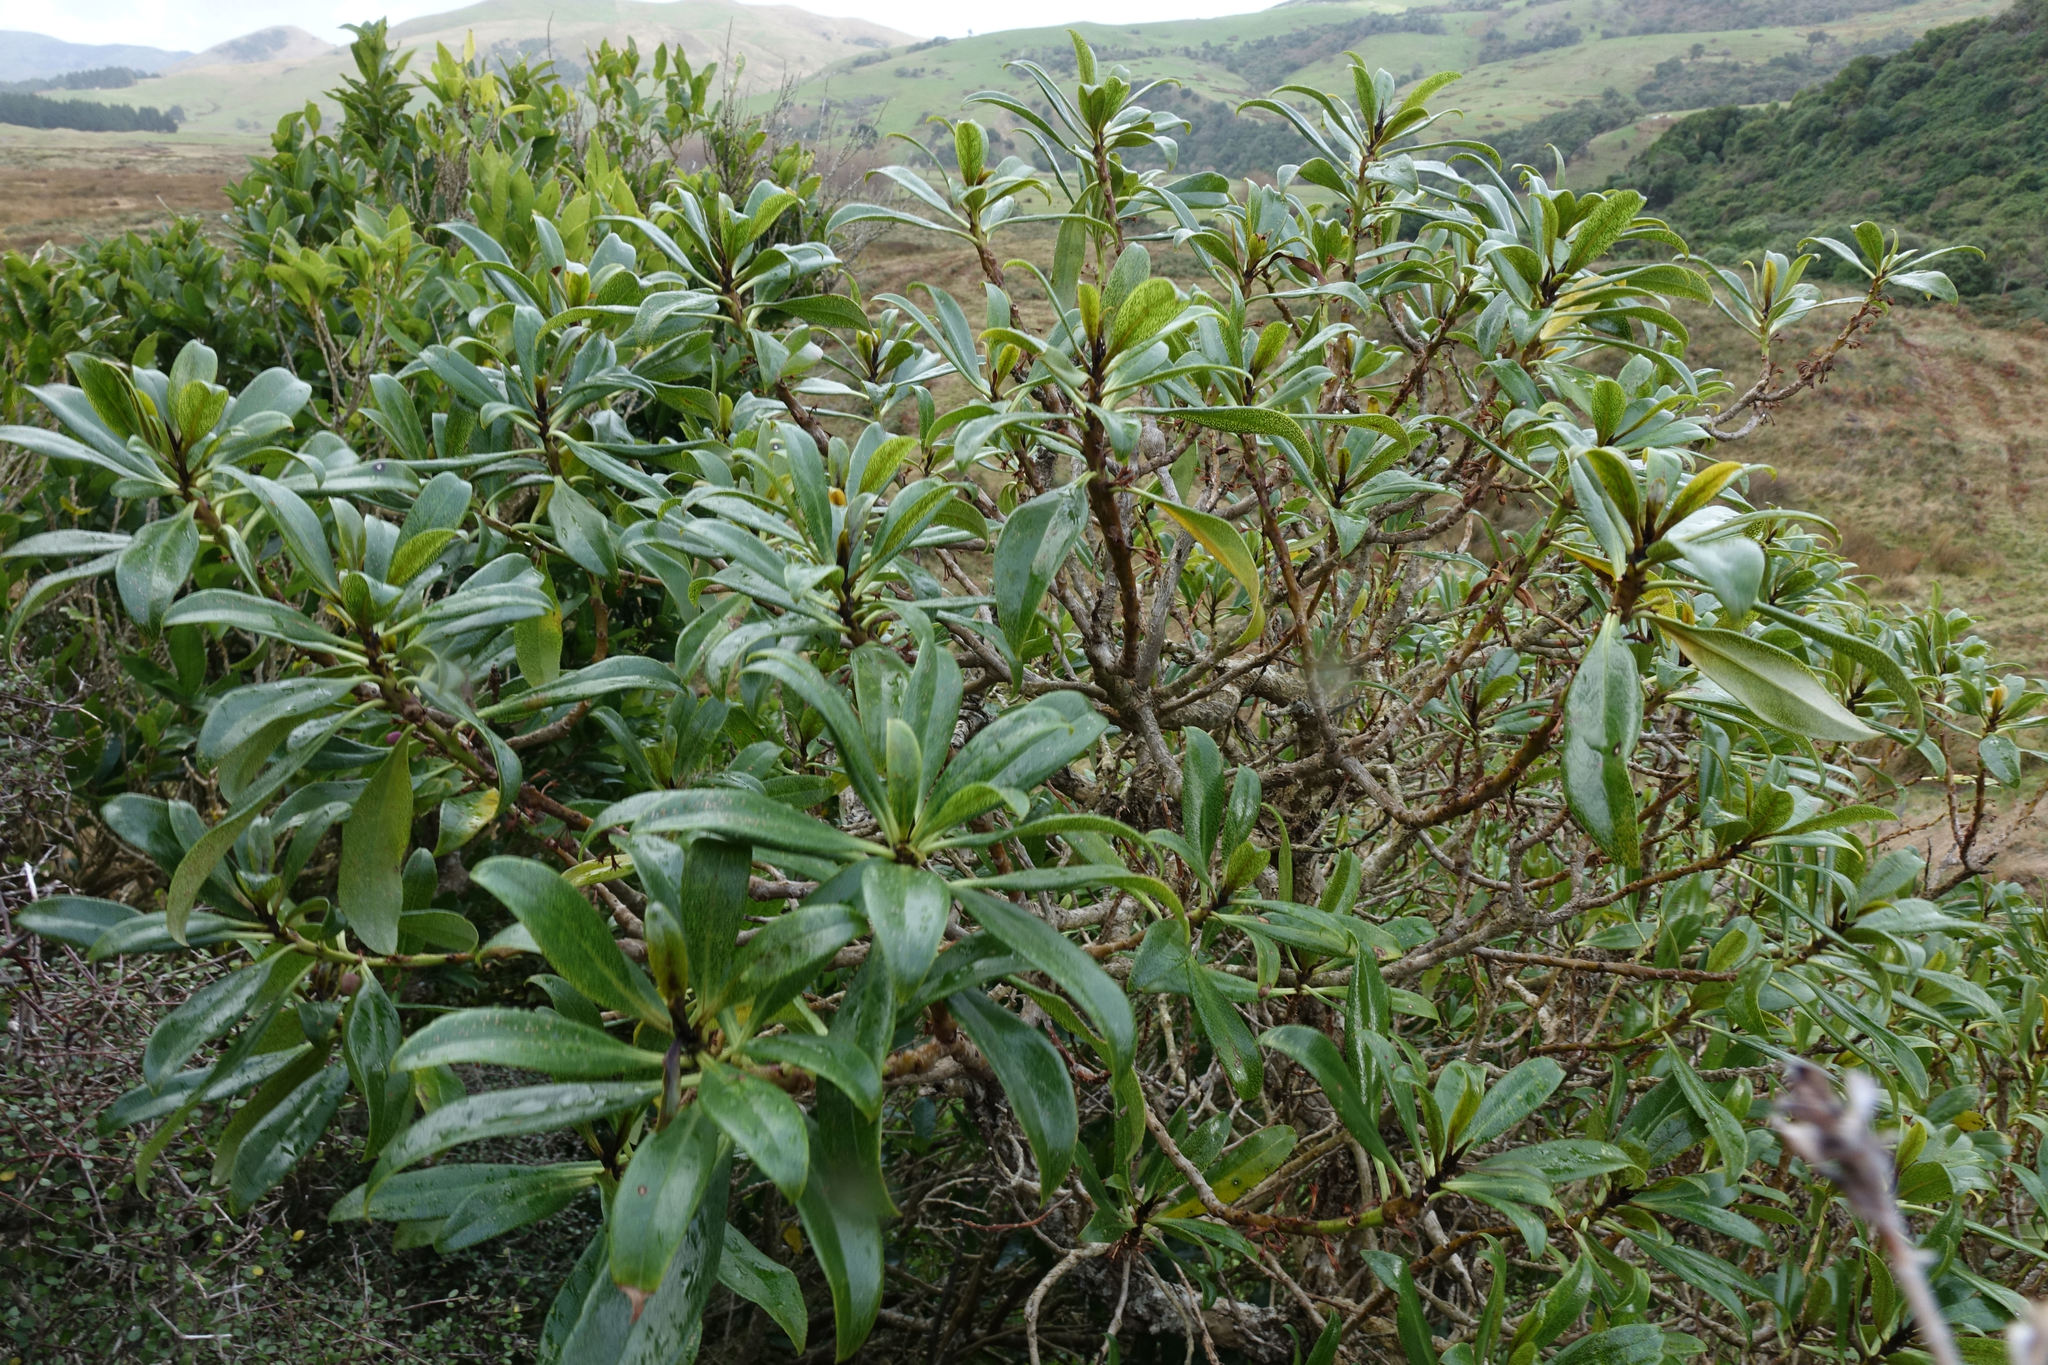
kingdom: Plantae
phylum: Tracheophyta
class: Magnoliopsida
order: Lamiales
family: Scrophulariaceae
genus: Myoporum
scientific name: Myoporum laetum
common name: Ngaio tree
